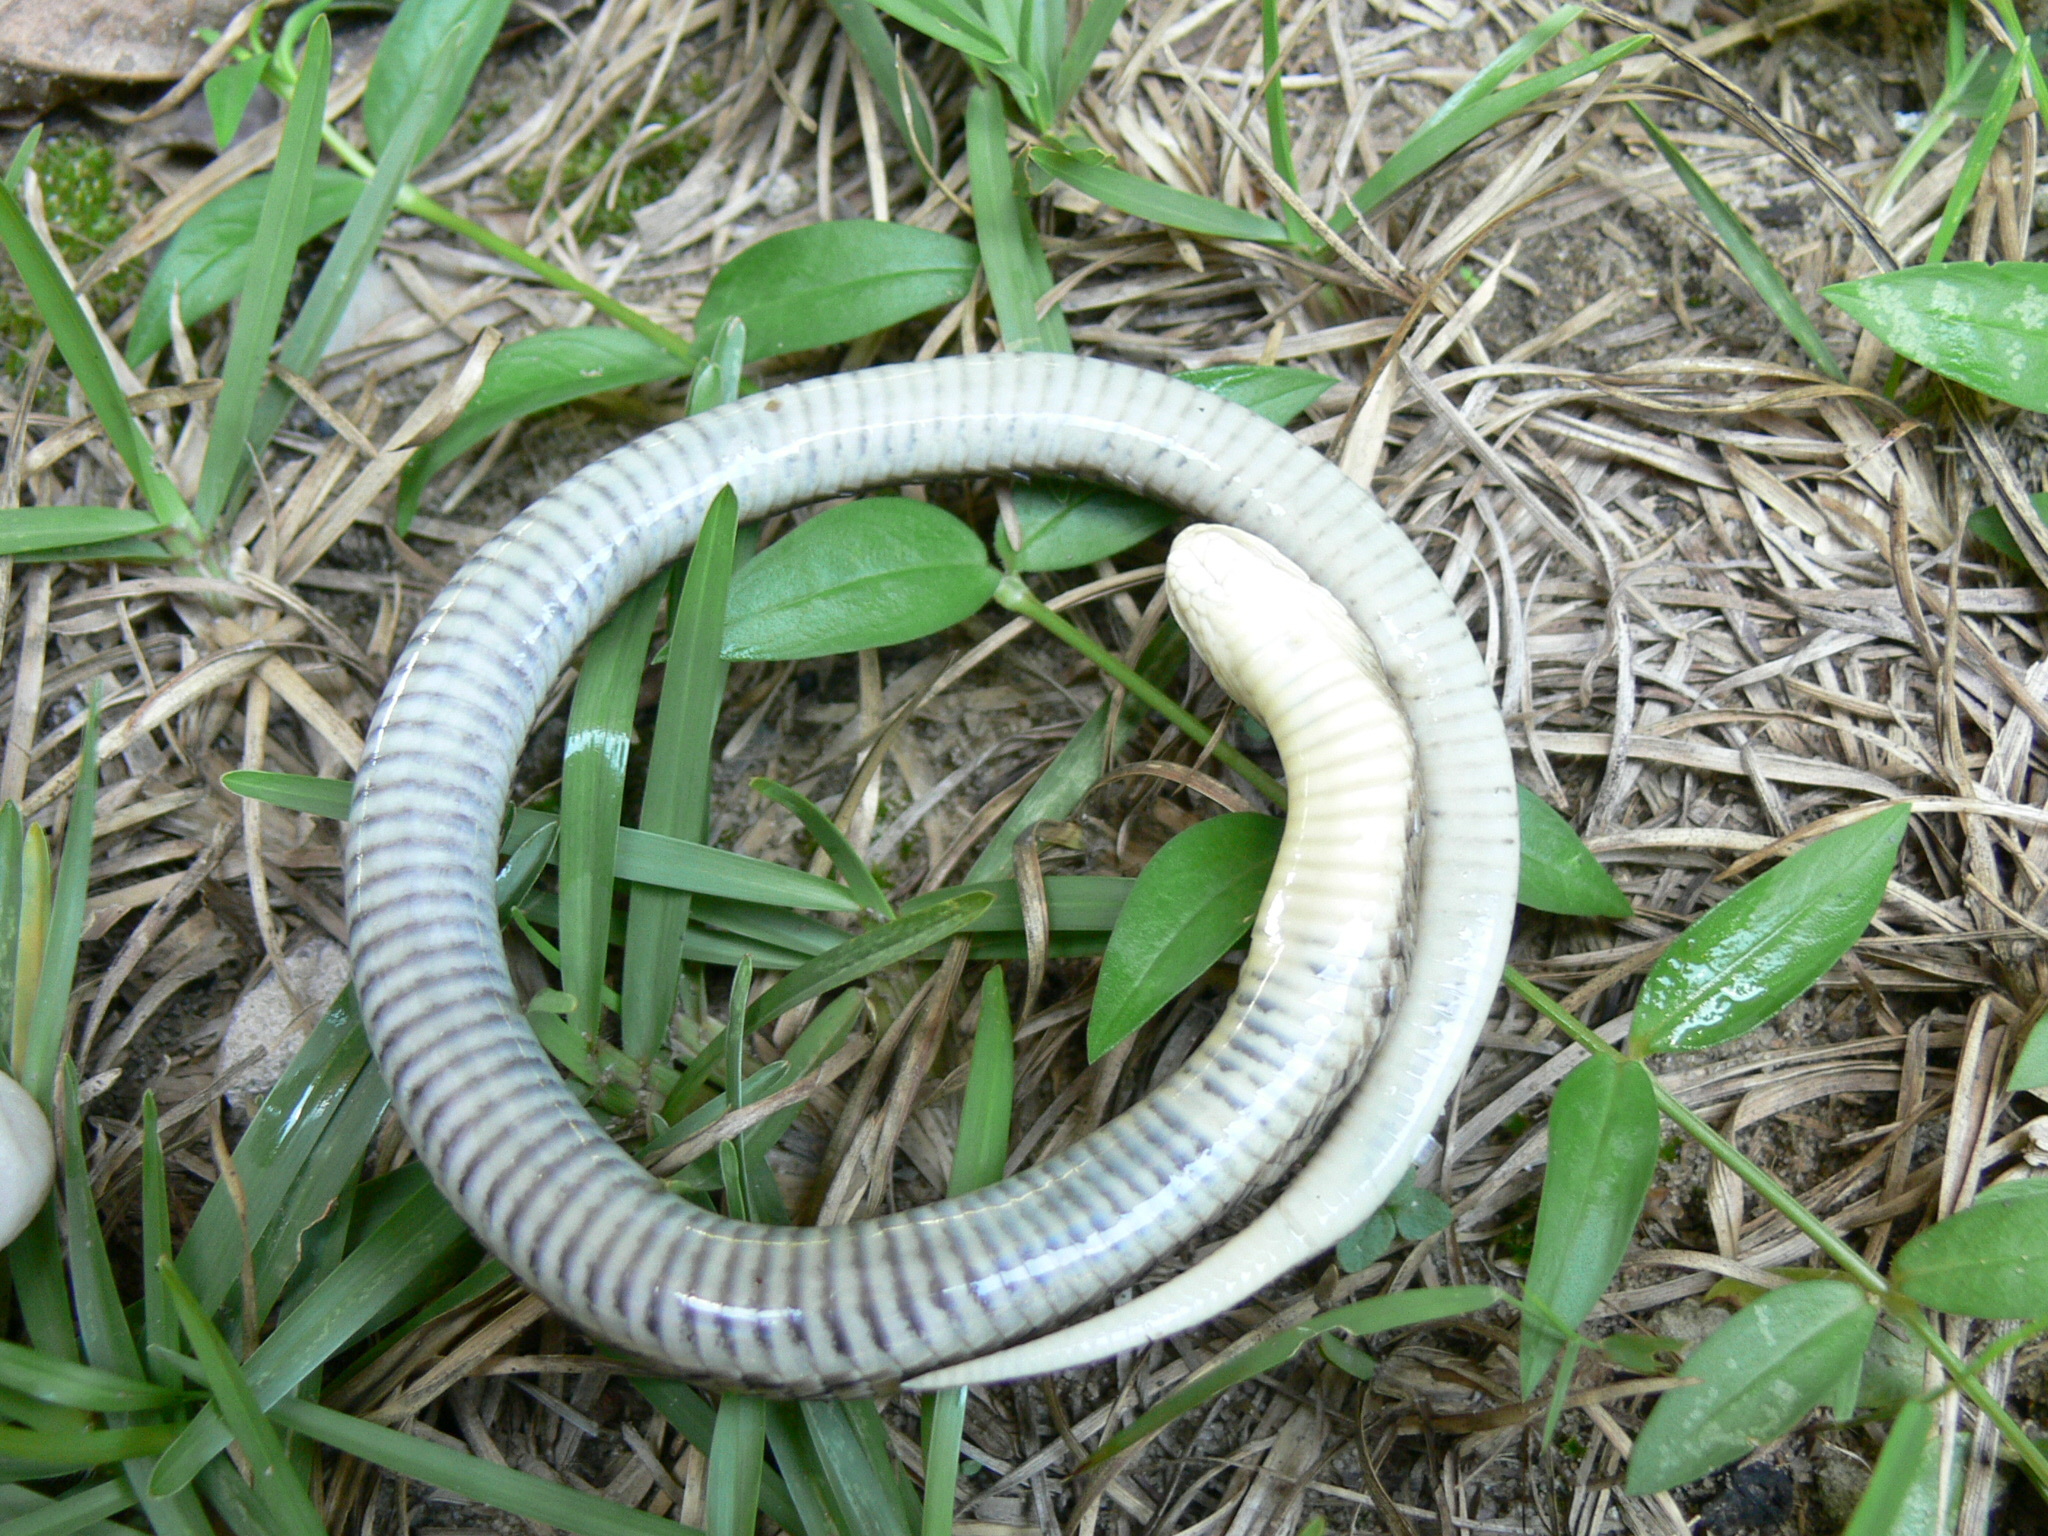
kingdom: Animalia
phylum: Chordata
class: Squamata
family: Viperidae
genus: Causus
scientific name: Causus maculatus
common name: Spotted night adder
